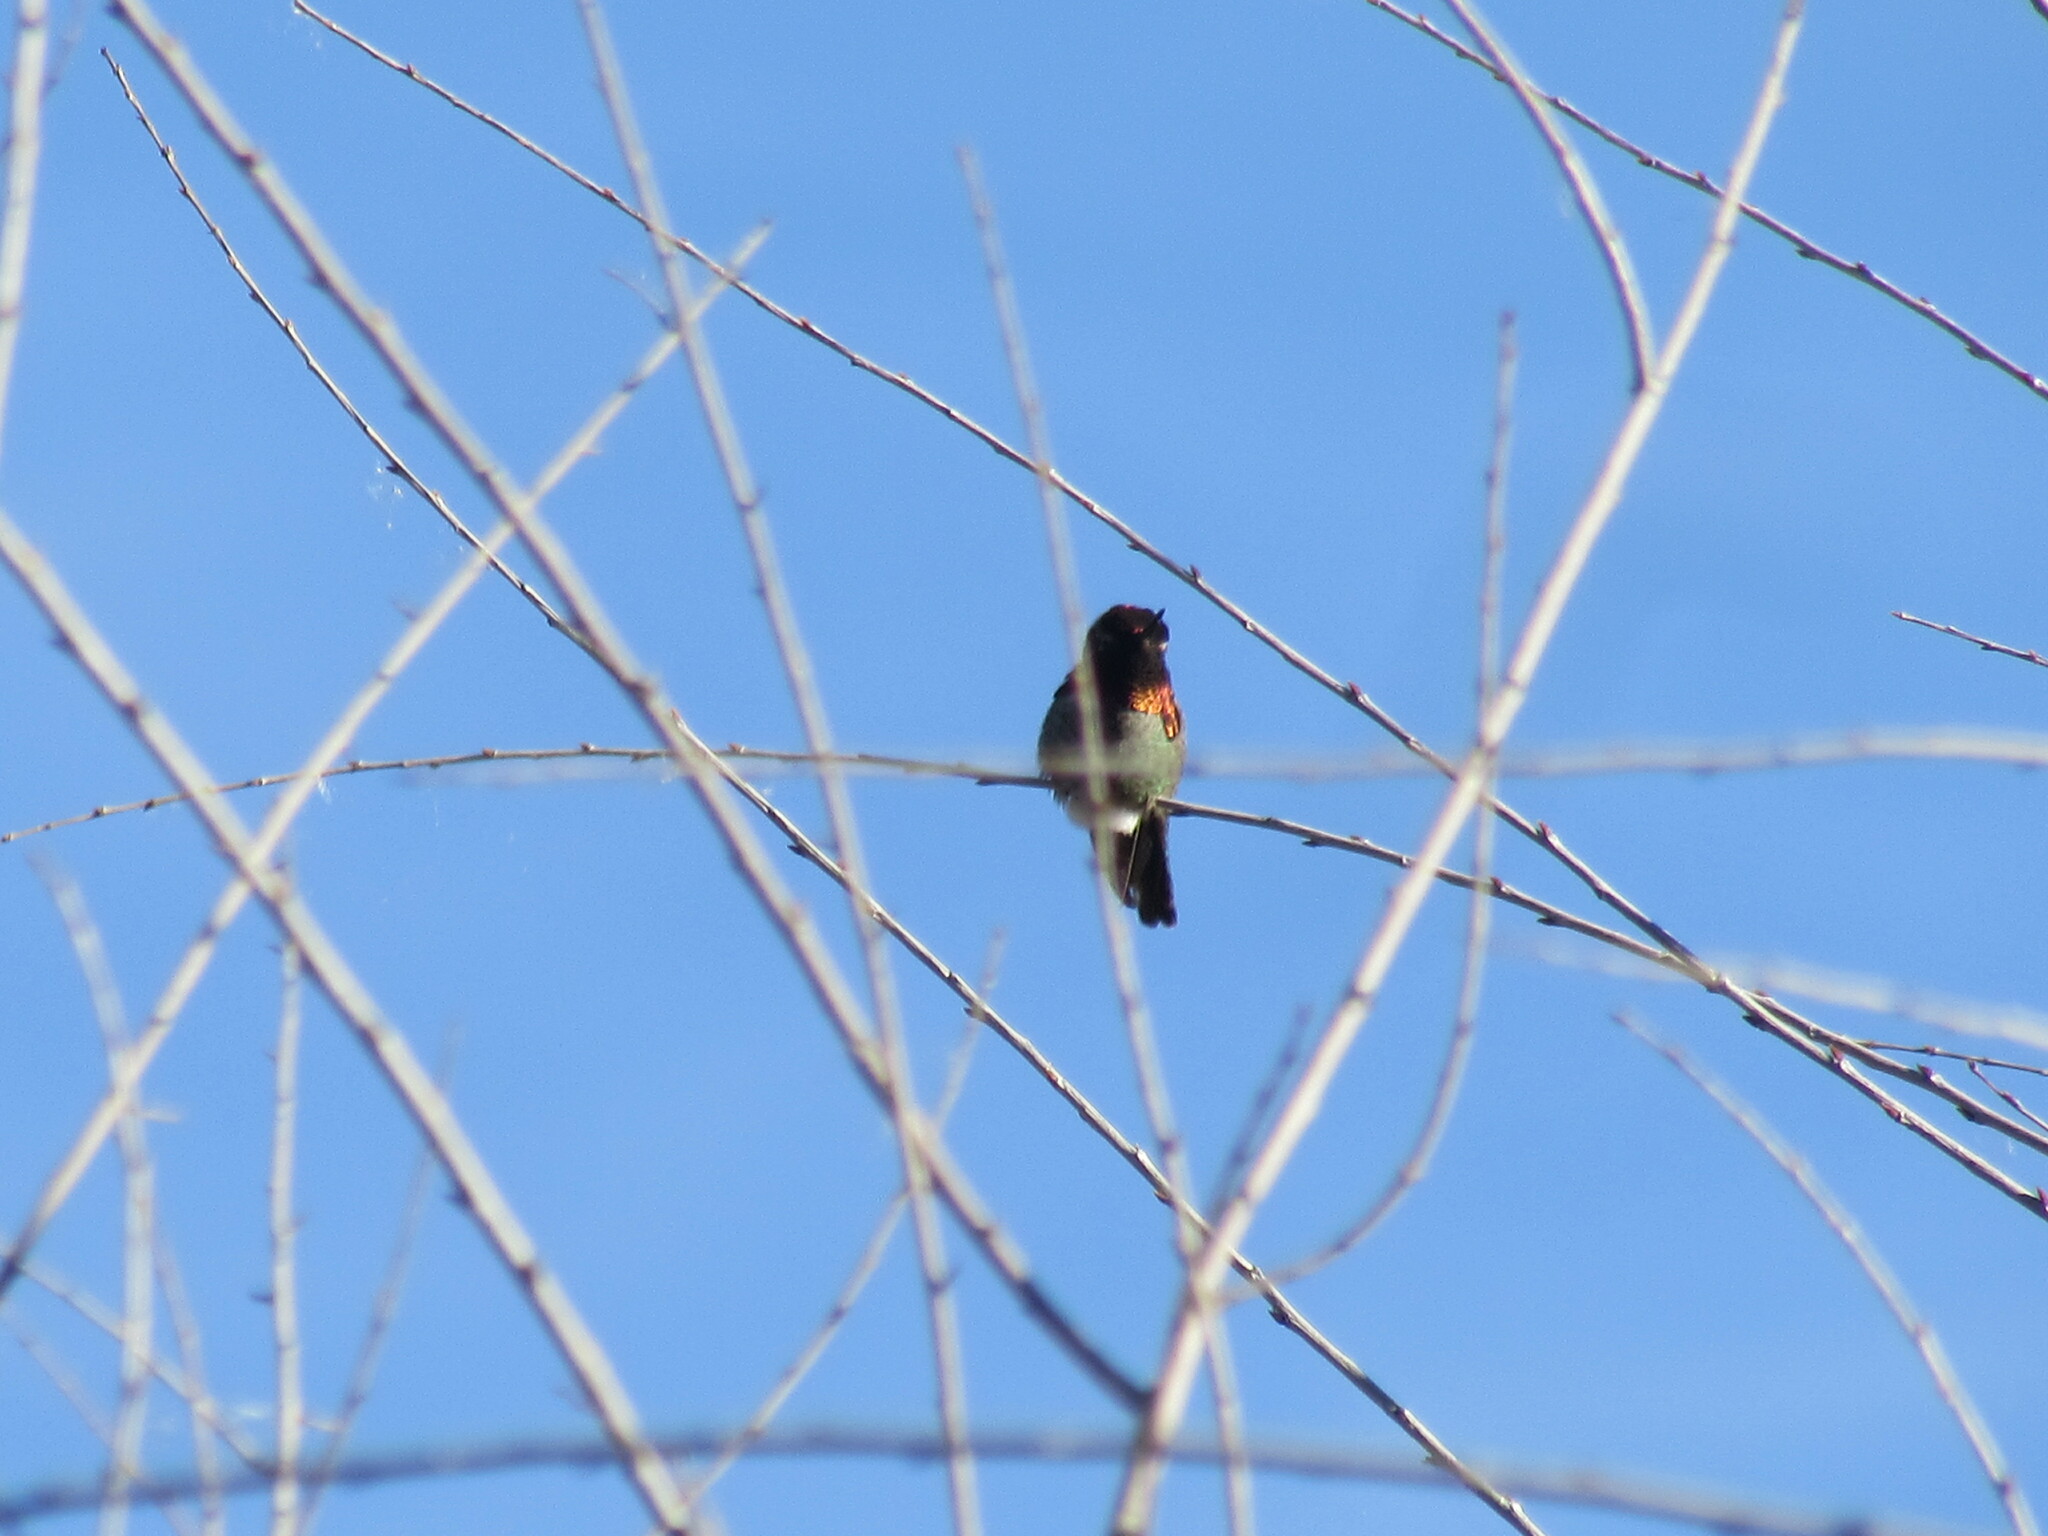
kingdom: Animalia
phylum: Chordata
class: Aves
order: Apodiformes
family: Trochilidae
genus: Calypte
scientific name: Calypte anna
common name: Anna's hummingbird
